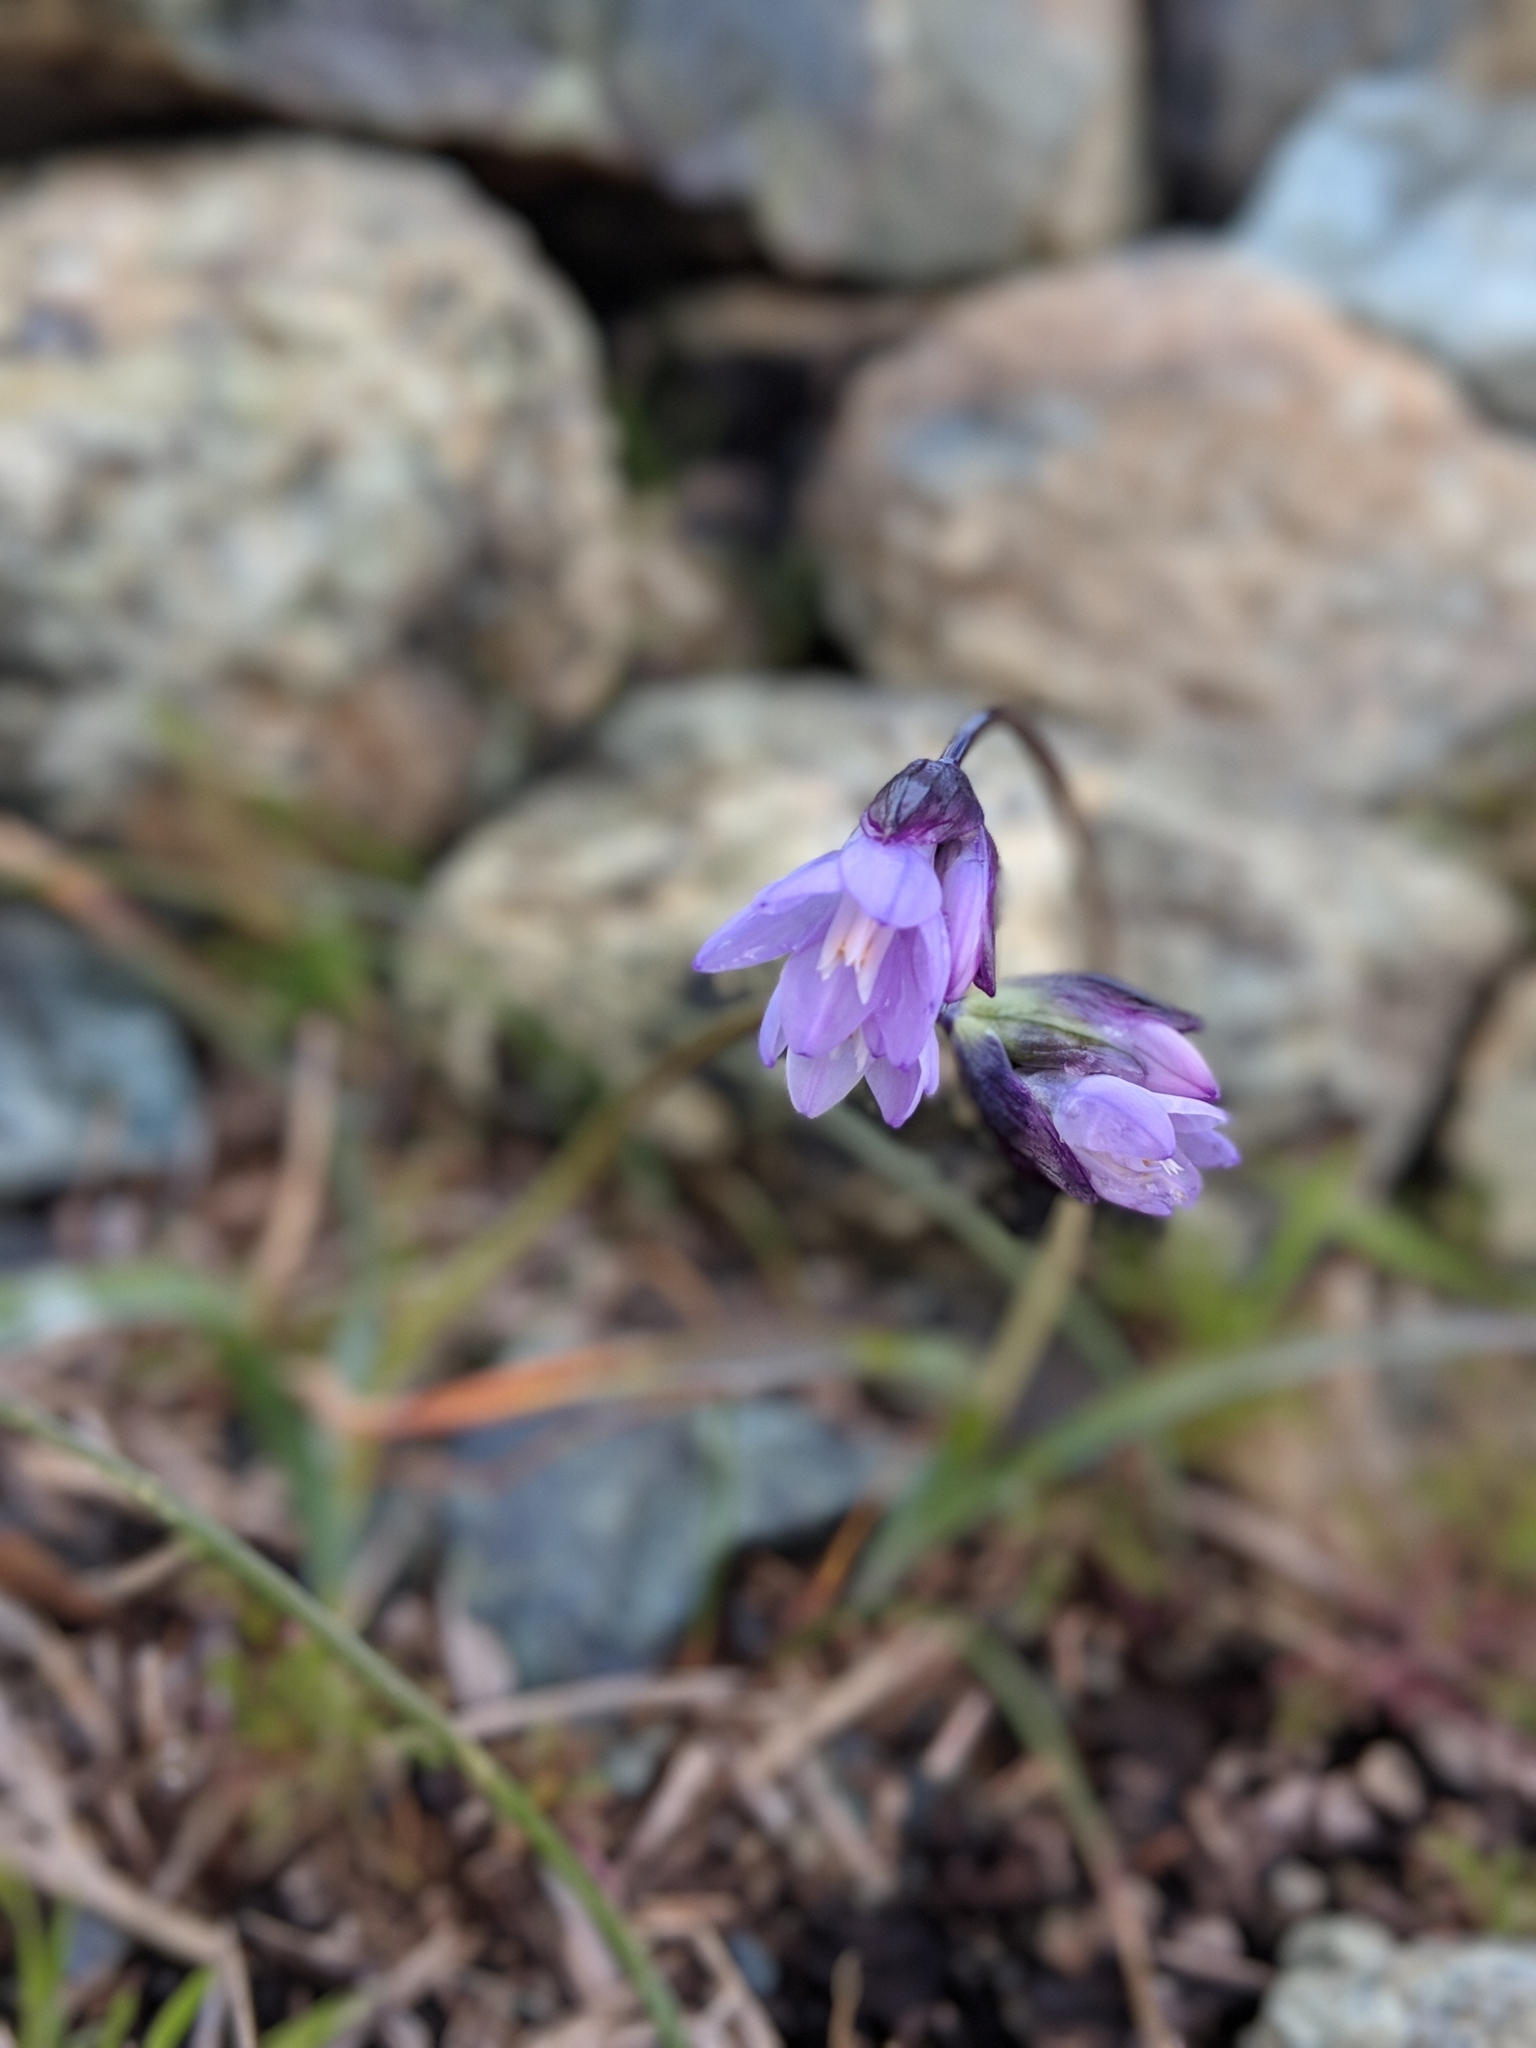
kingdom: Plantae
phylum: Tracheophyta
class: Liliopsida
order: Asparagales
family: Asparagaceae
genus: Dipterostemon
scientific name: Dipterostemon capitatus
